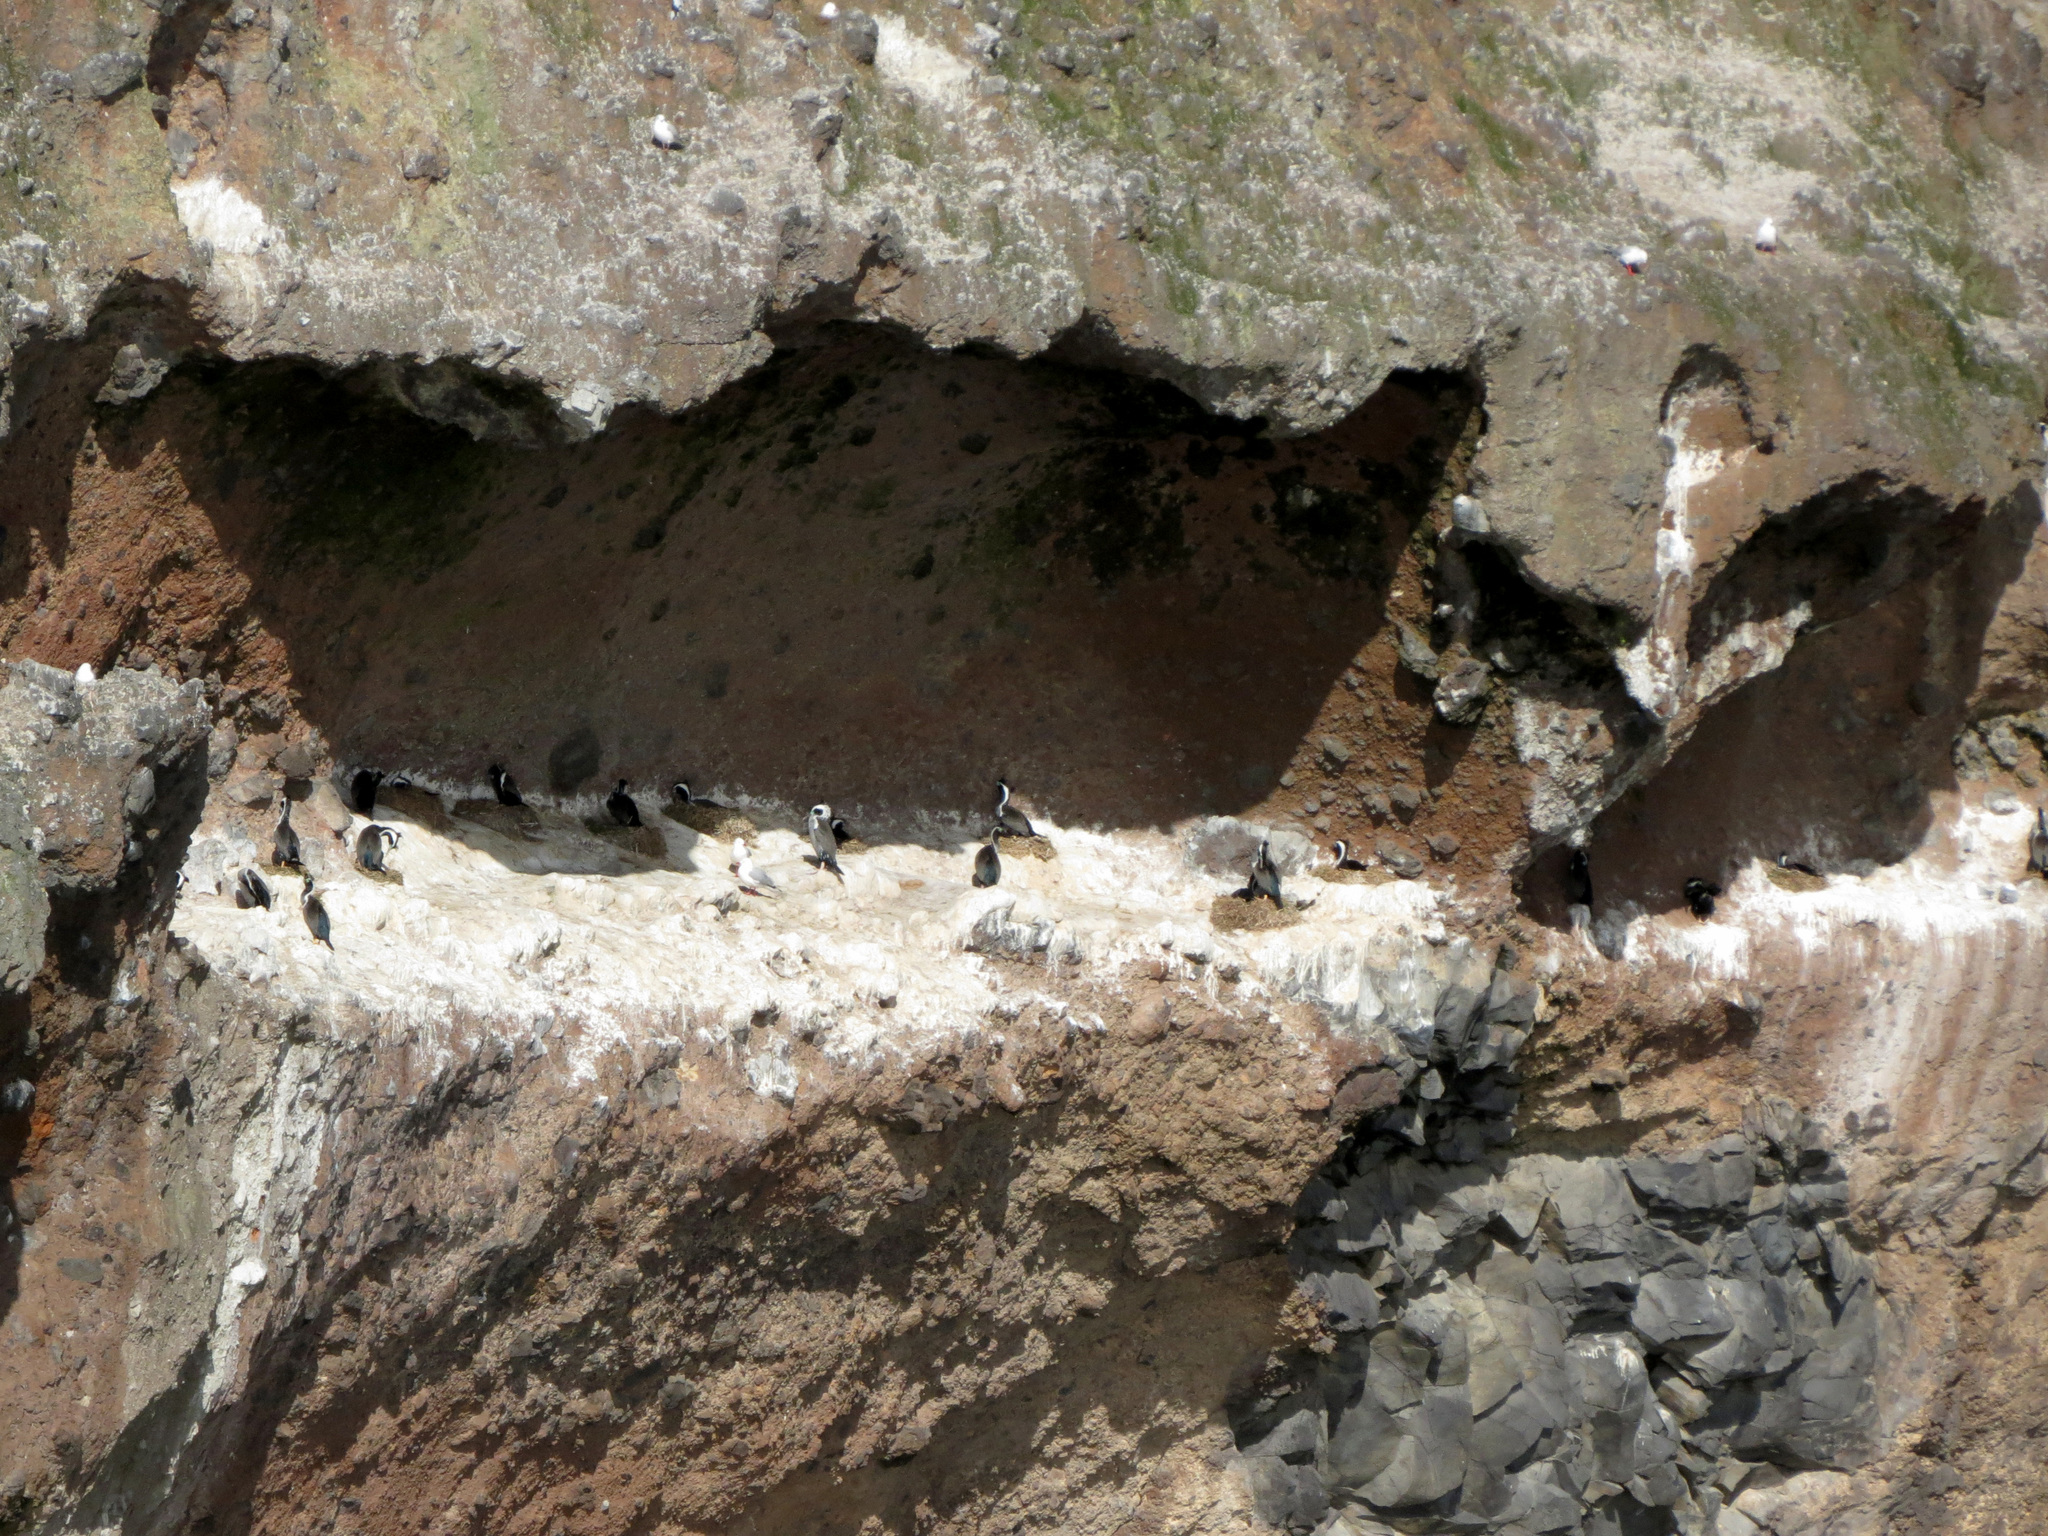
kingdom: Animalia
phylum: Chordata
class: Aves
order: Suliformes
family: Phalacrocoracidae
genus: Phalacrocorax
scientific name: Phalacrocorax punctatus
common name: Spotted shag
